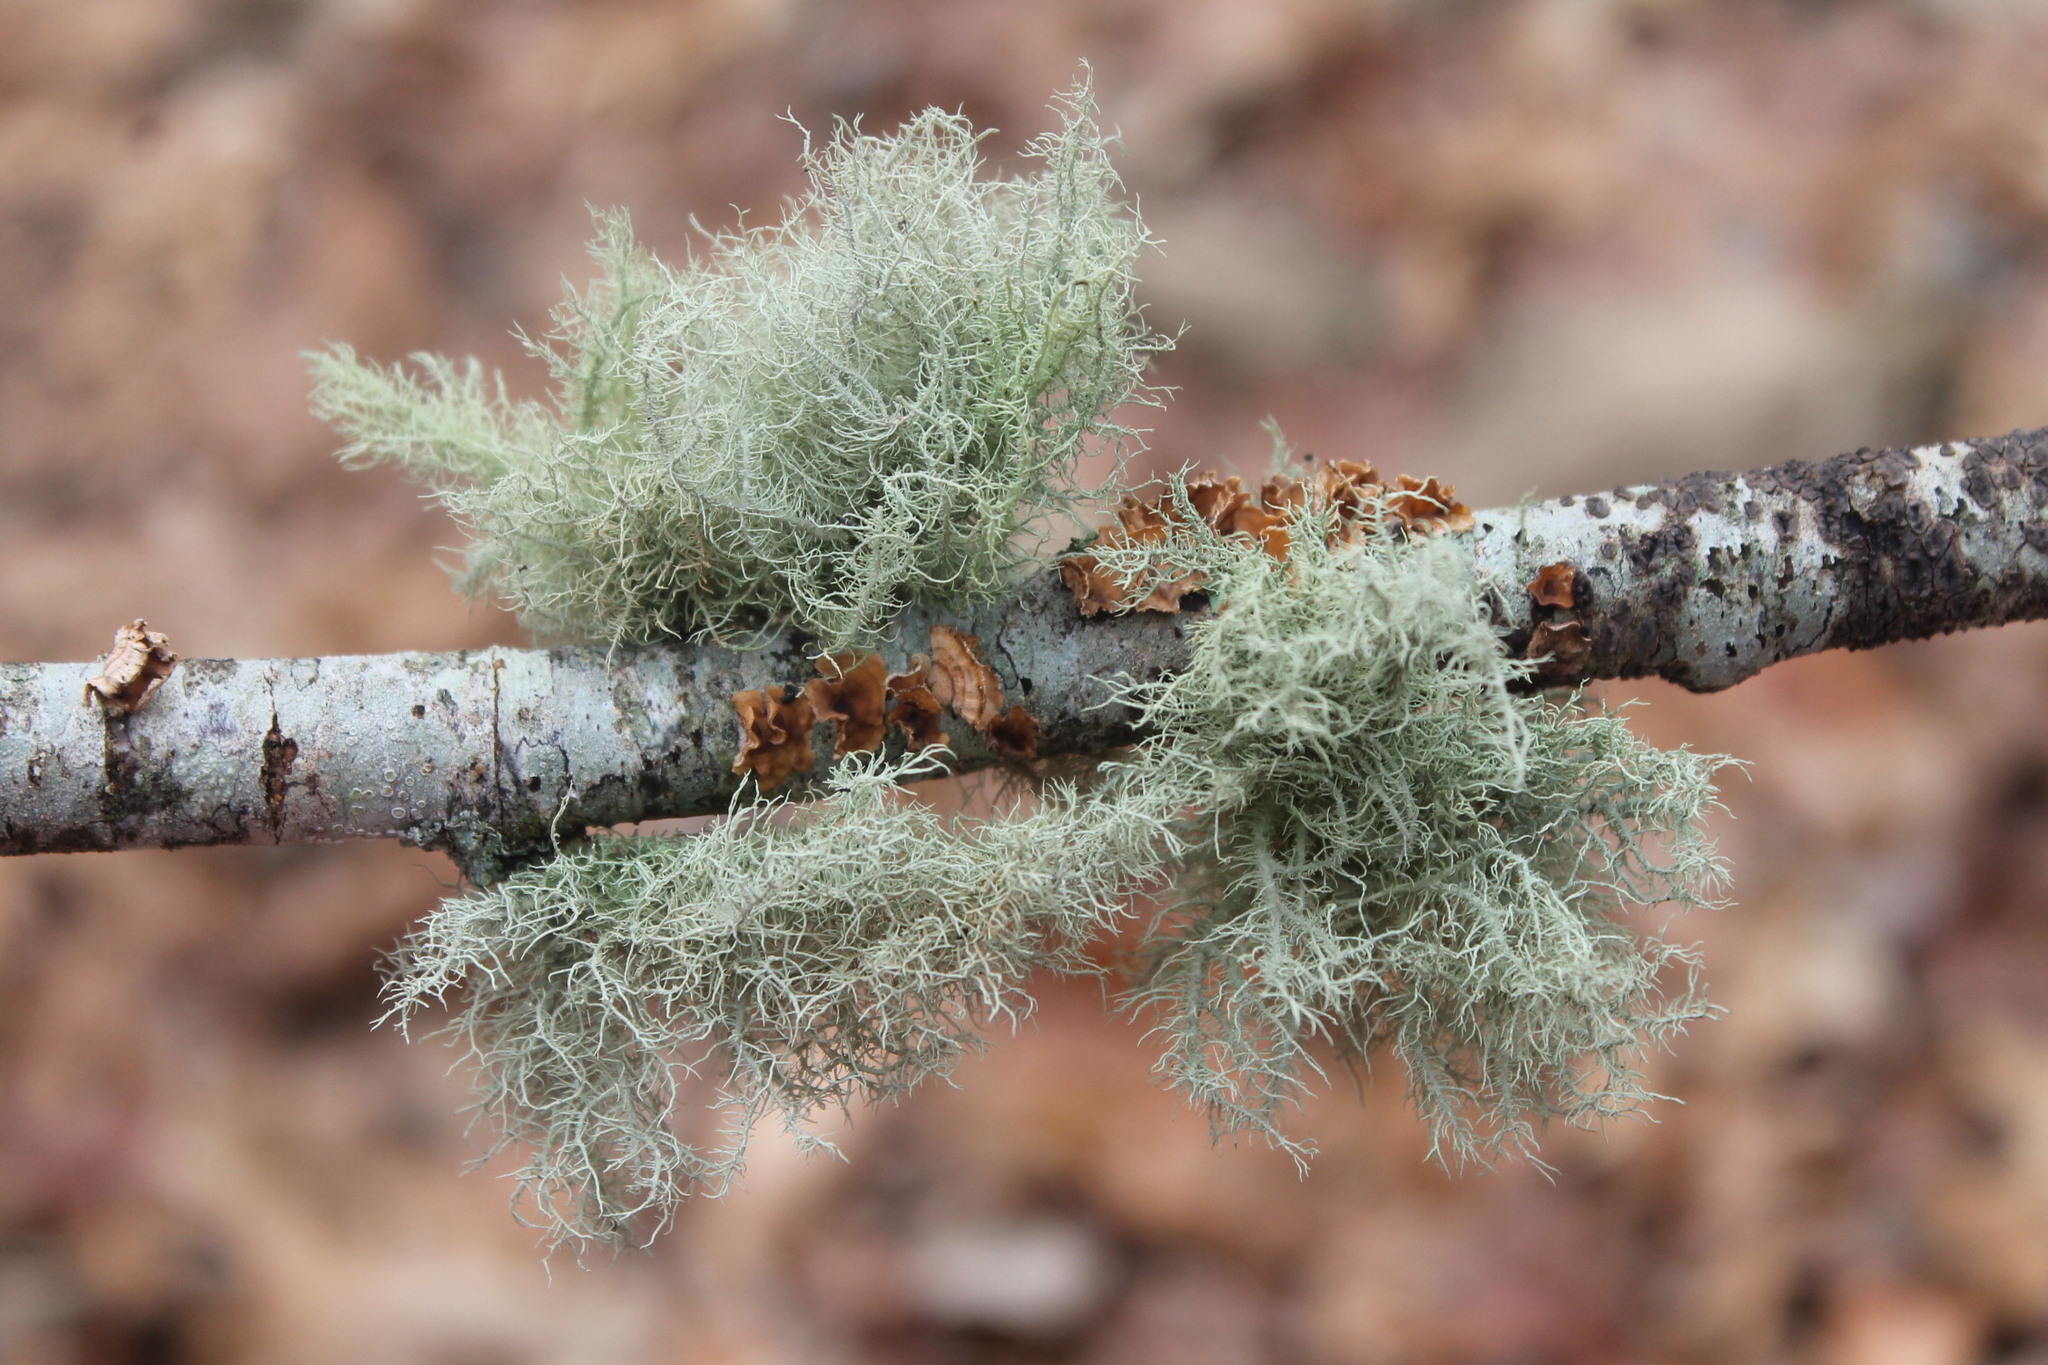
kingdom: Fungi
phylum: Ascomycota
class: Lecanoromycetes
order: Lecanorales
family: Parmeliaceae
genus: Usnea
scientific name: Usnea hirta
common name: Bristly beard lichen
